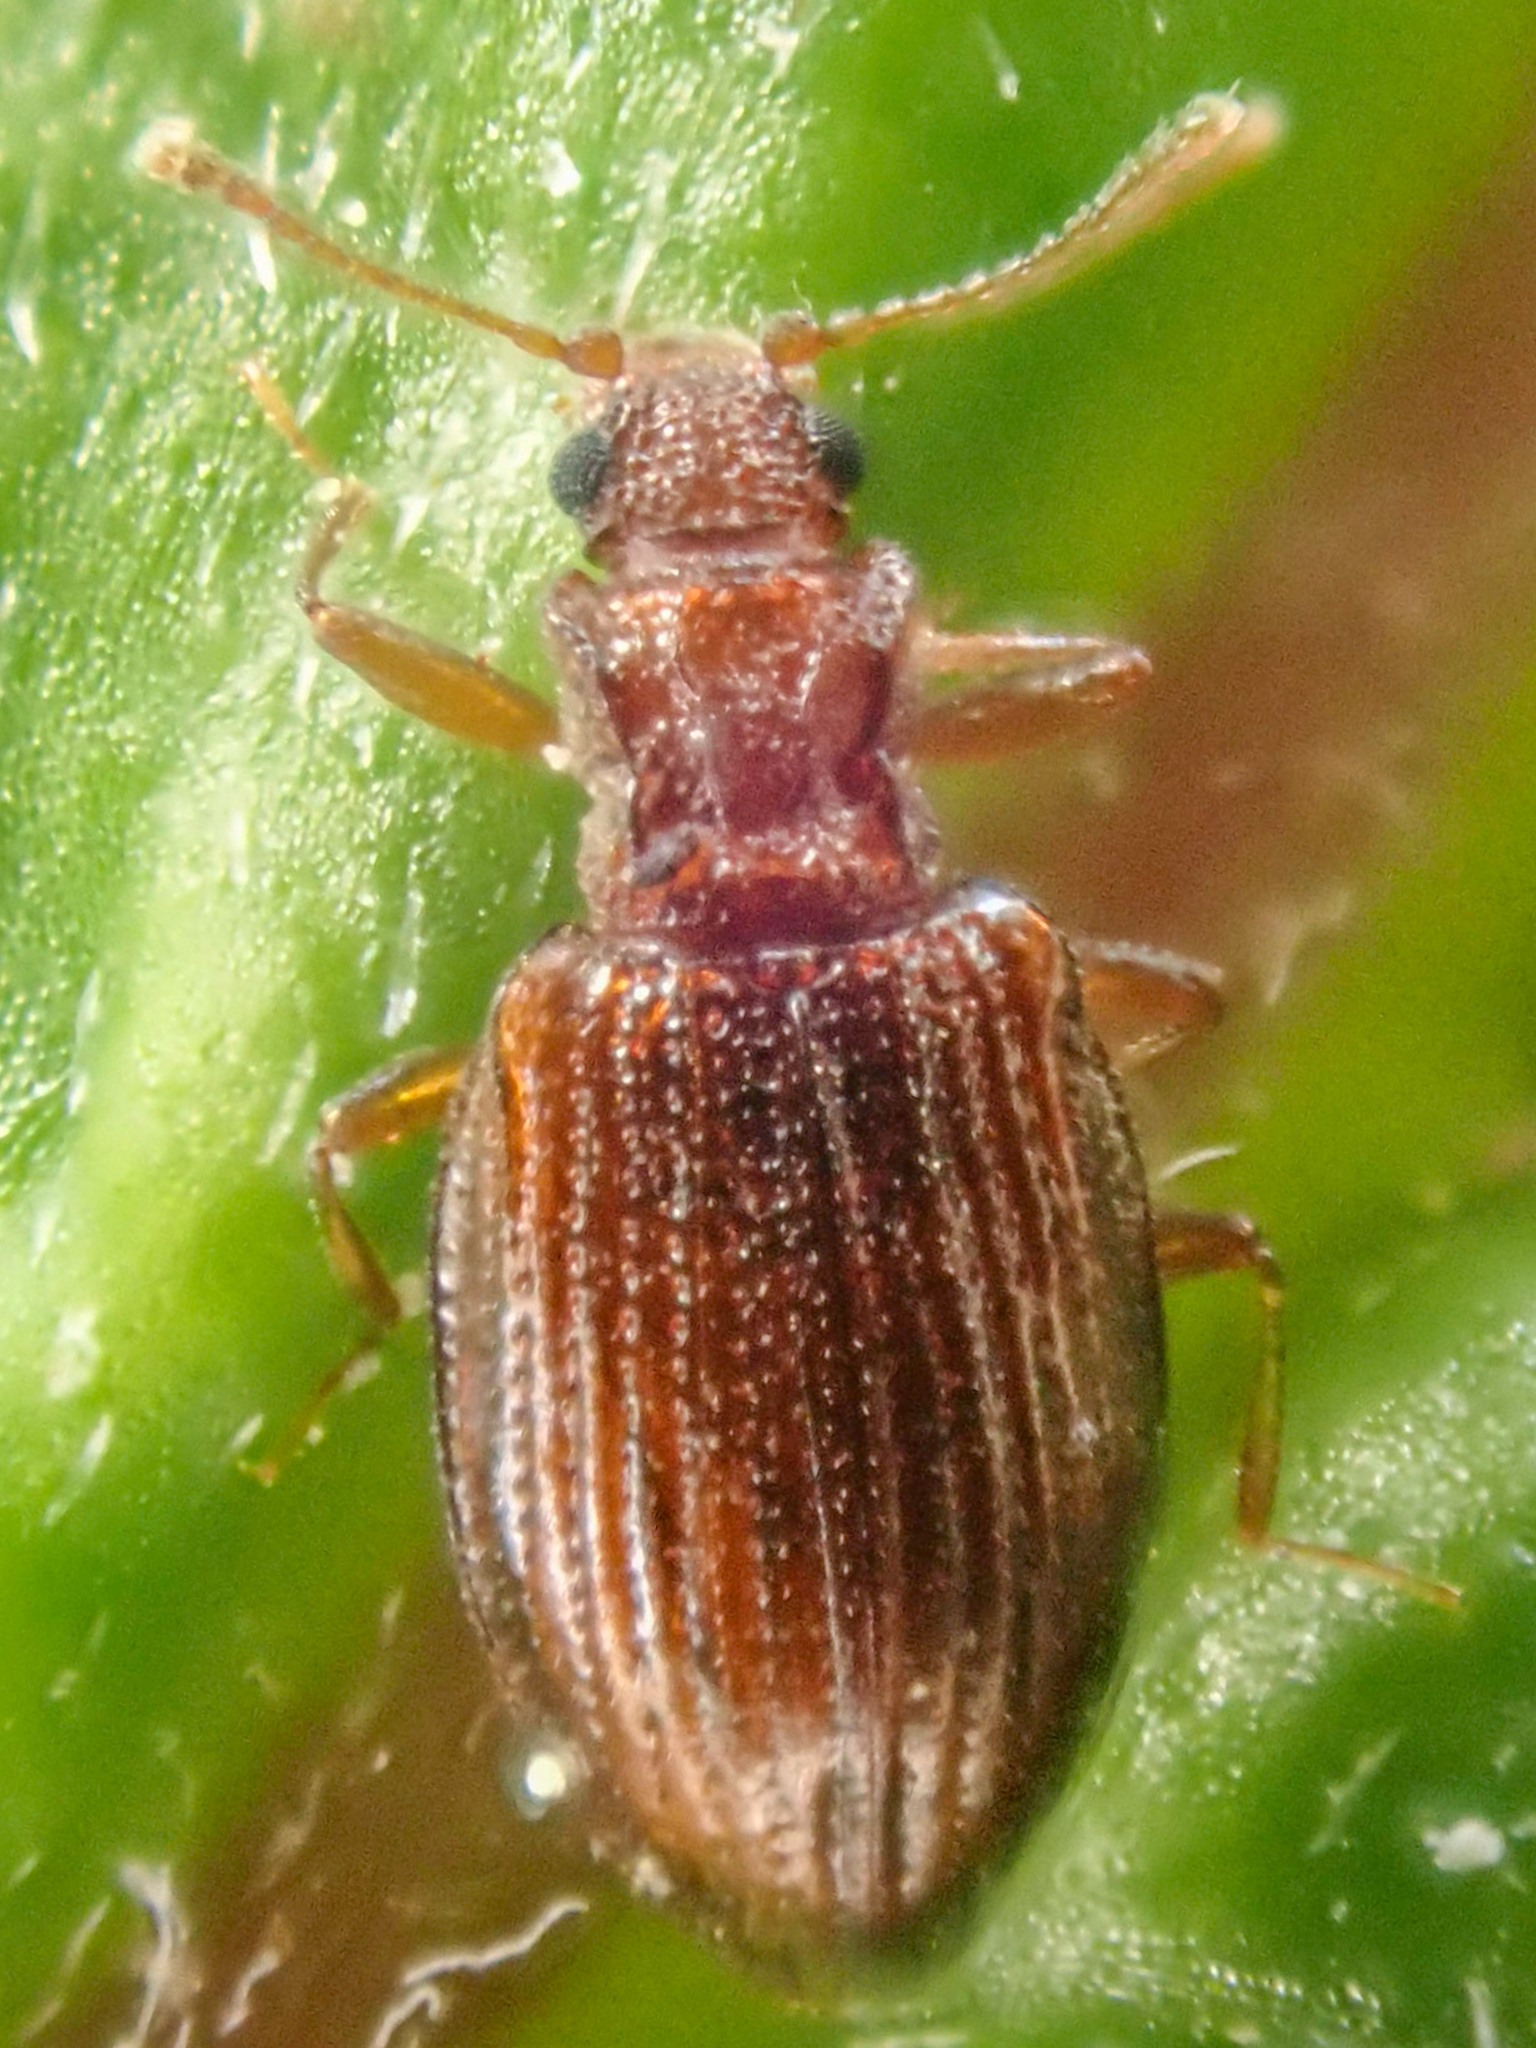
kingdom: Animalia
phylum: Arthropoda
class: Insecta
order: Coleoptera
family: Latridiidae
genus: Stephostethus
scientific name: Stephostethus liratus
